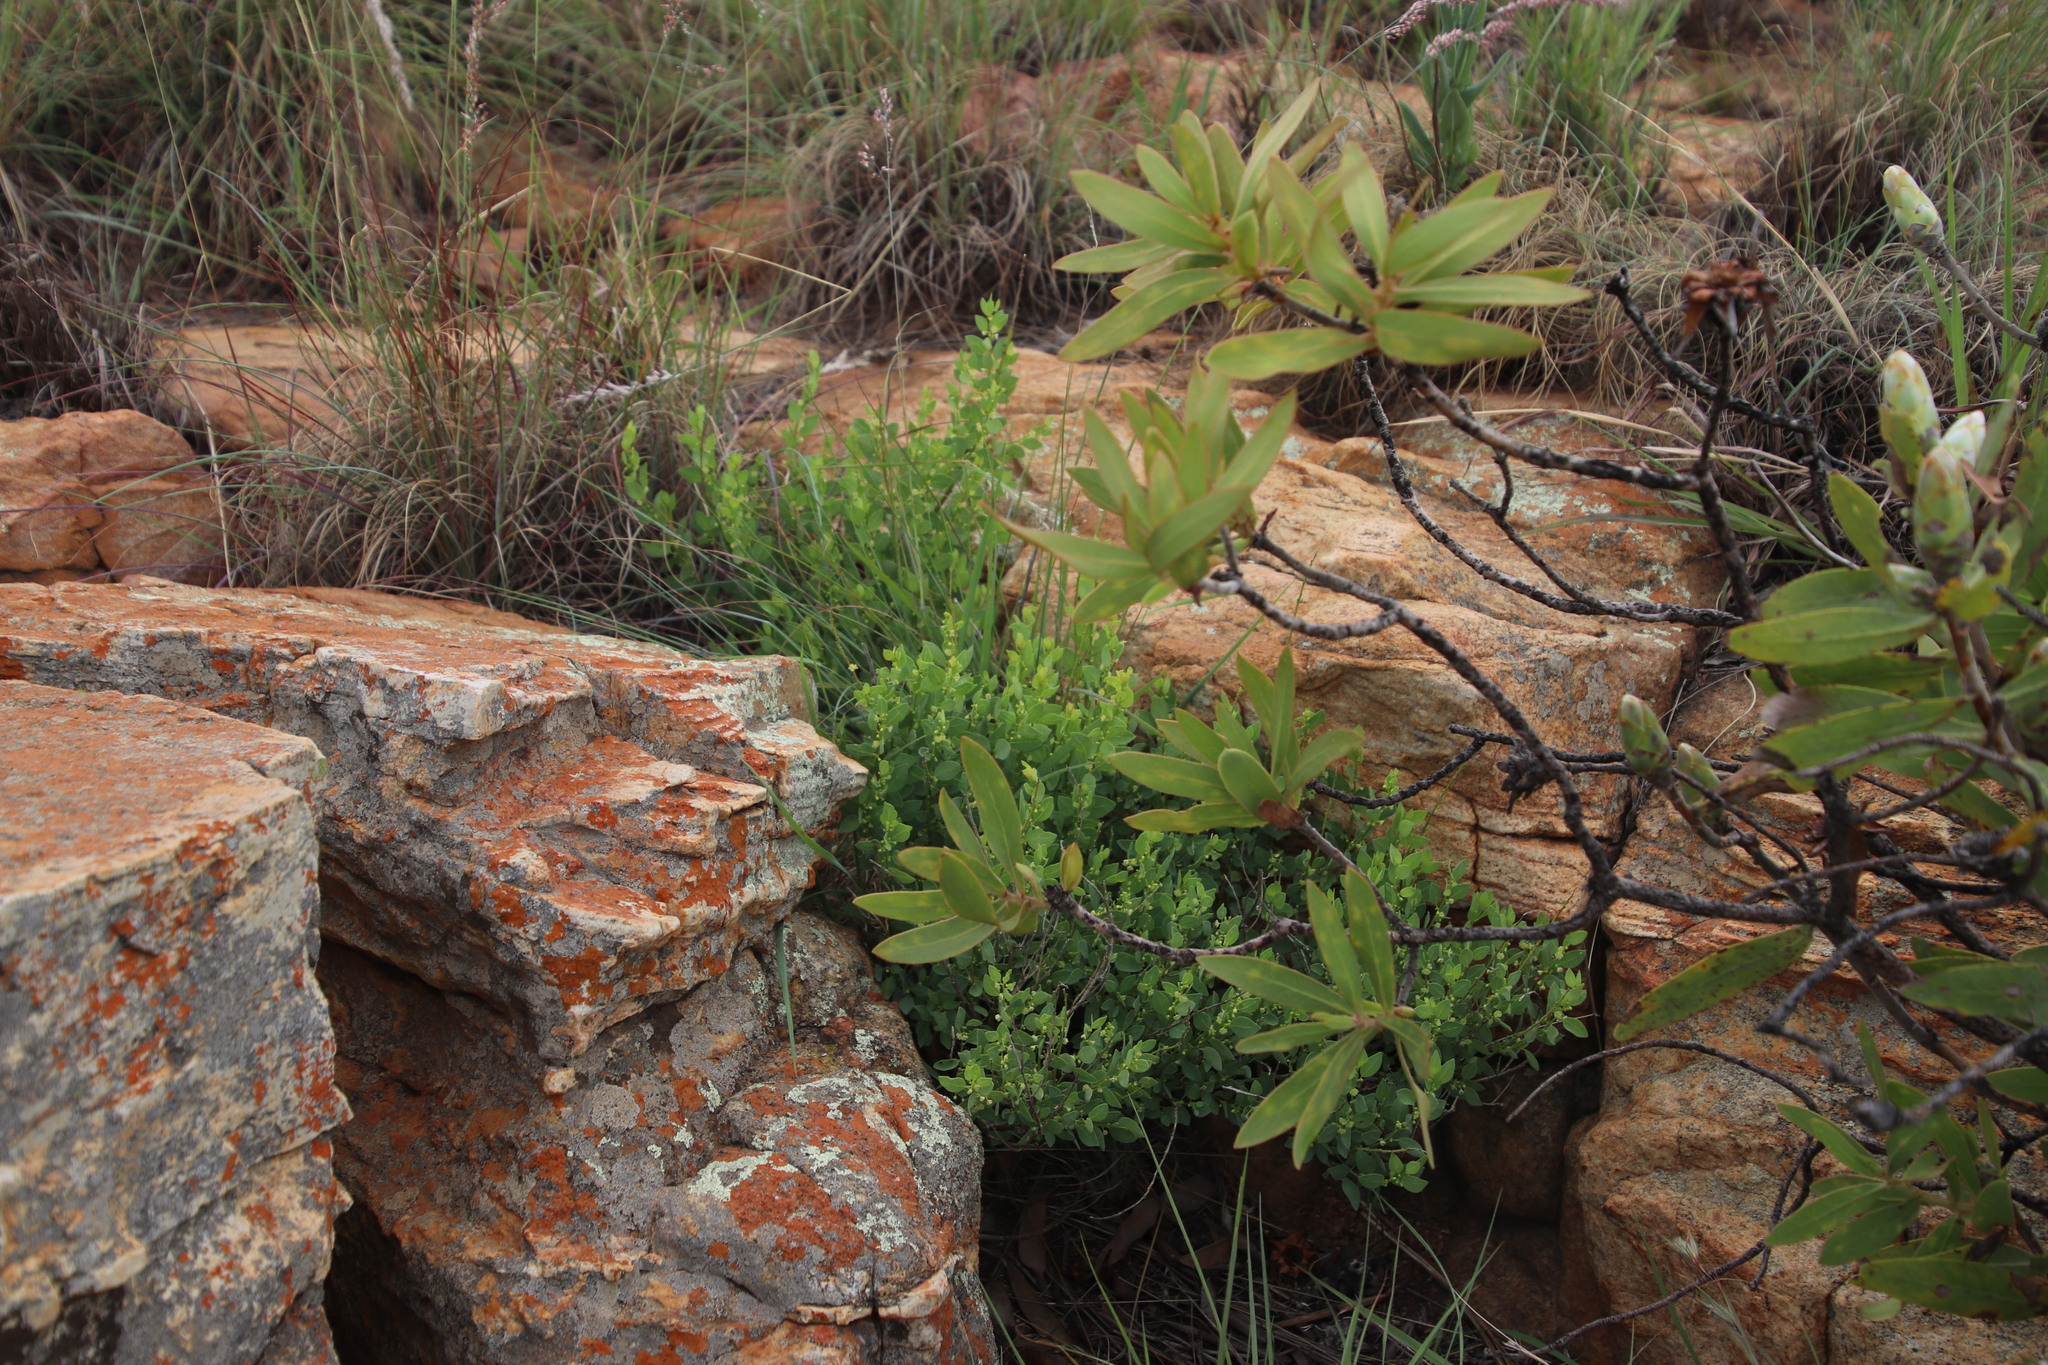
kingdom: Plantae
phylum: Tracheophyta
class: Magnoliopsida
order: Malpighiales
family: Peraceae
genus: Clutia
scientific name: Clutia pulchella
